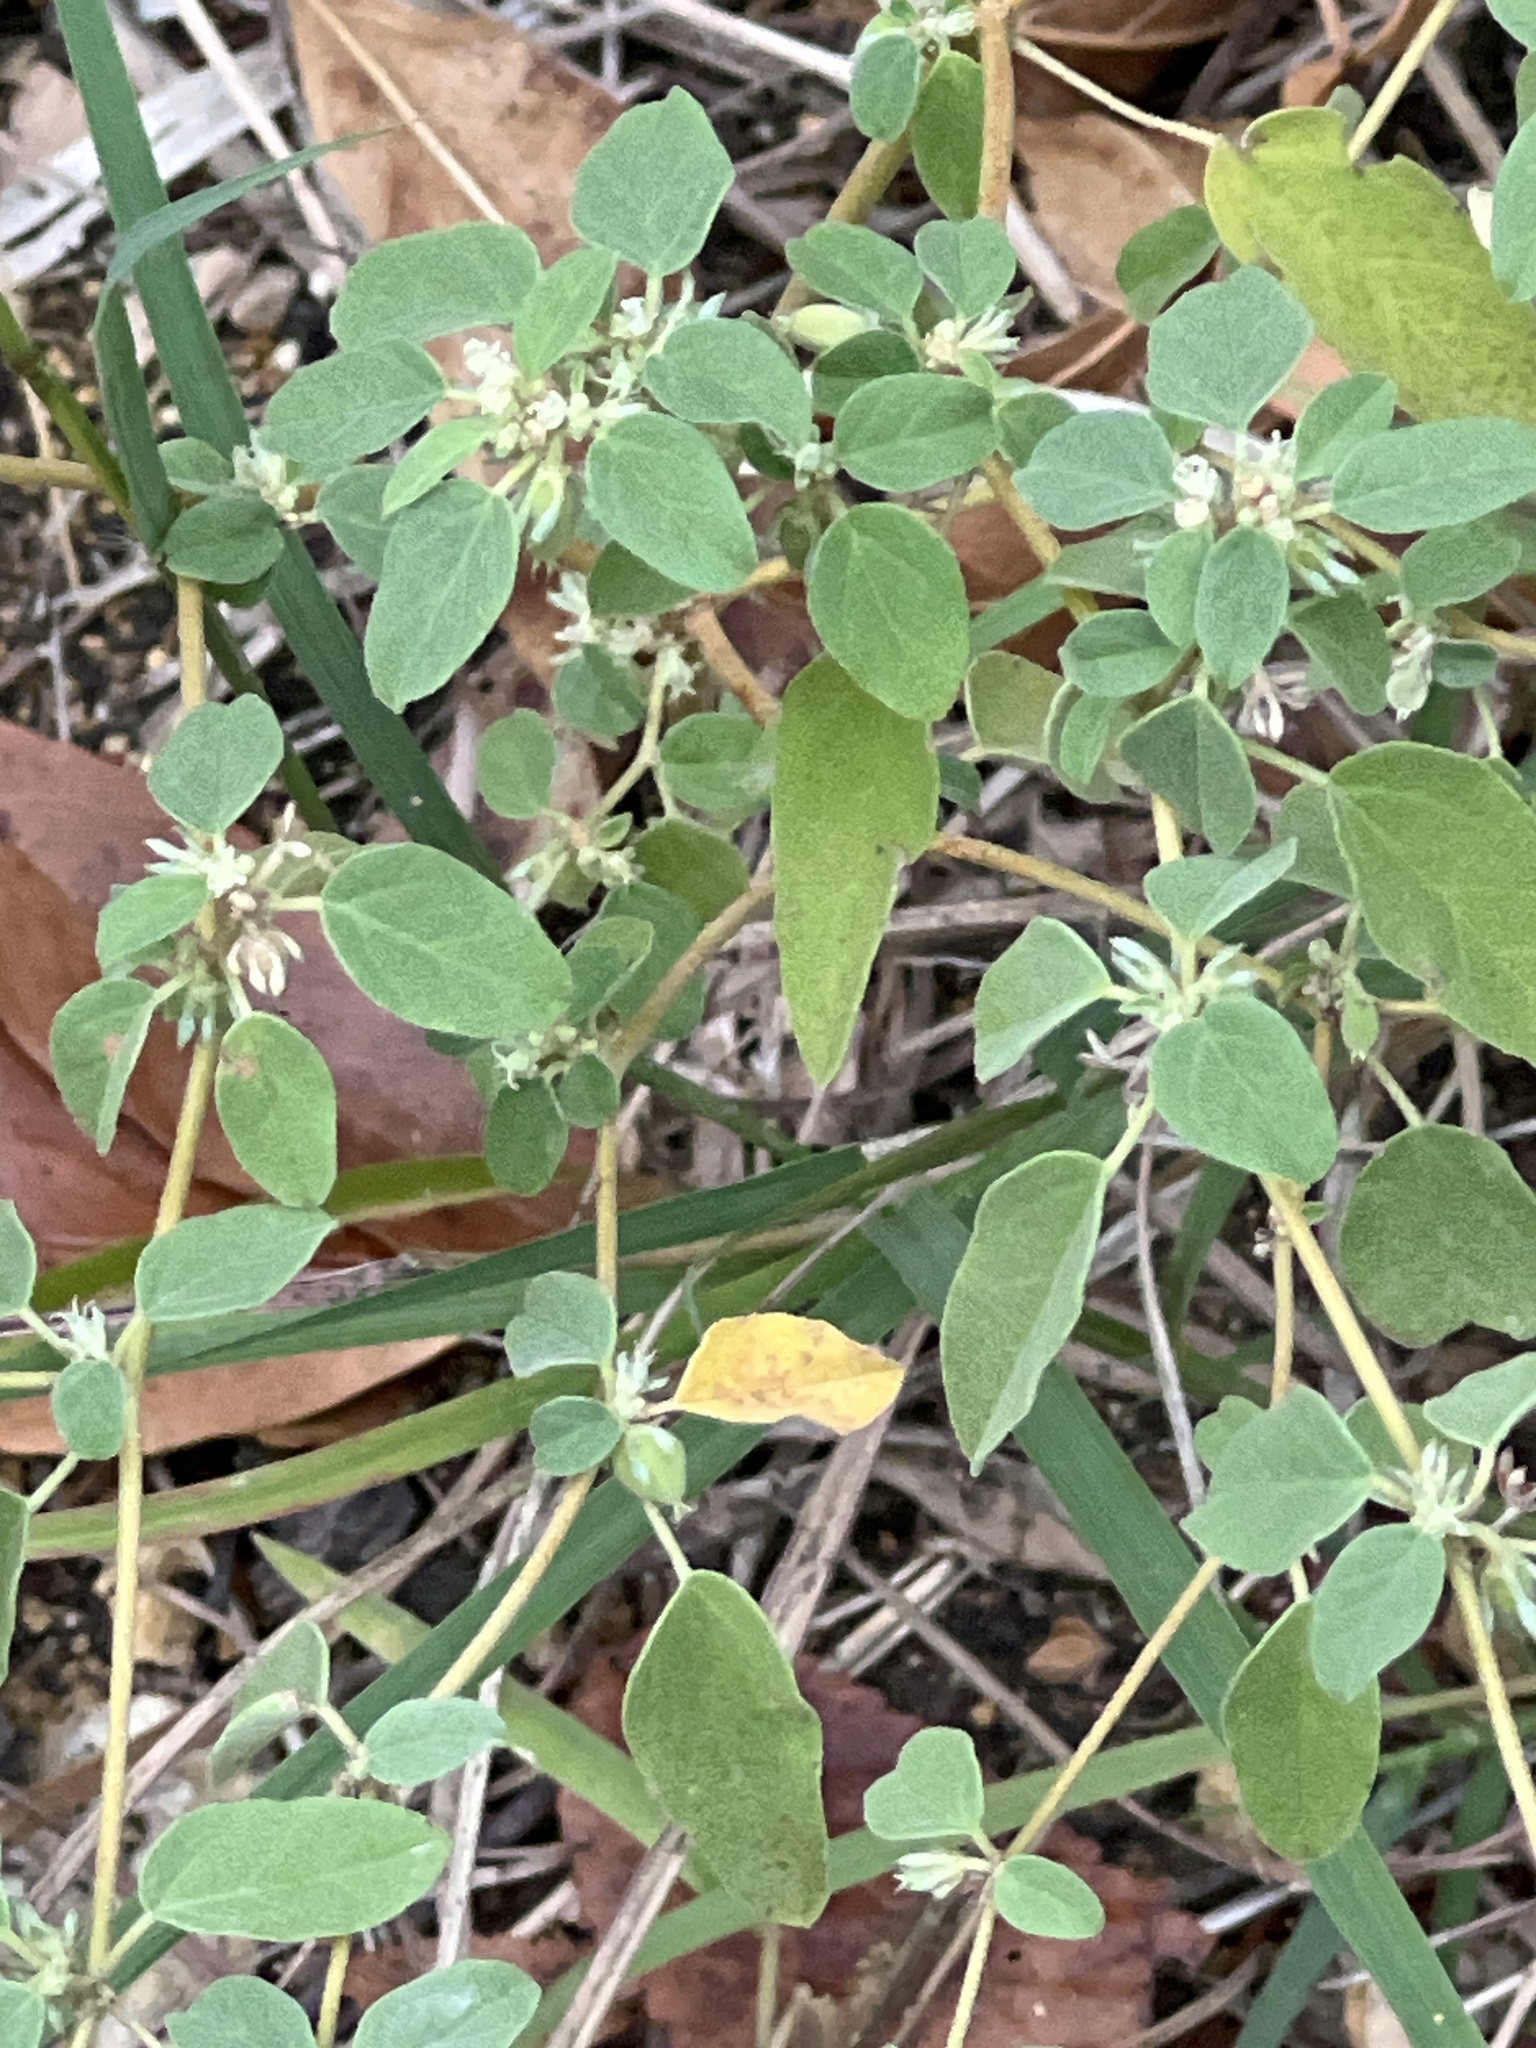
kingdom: Plantae
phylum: Tracheophyta
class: Magnoliopsida
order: Malpighiales
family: Euphorbiaceae
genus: Croton
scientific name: Croton monanthogynus
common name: One-seed croton
